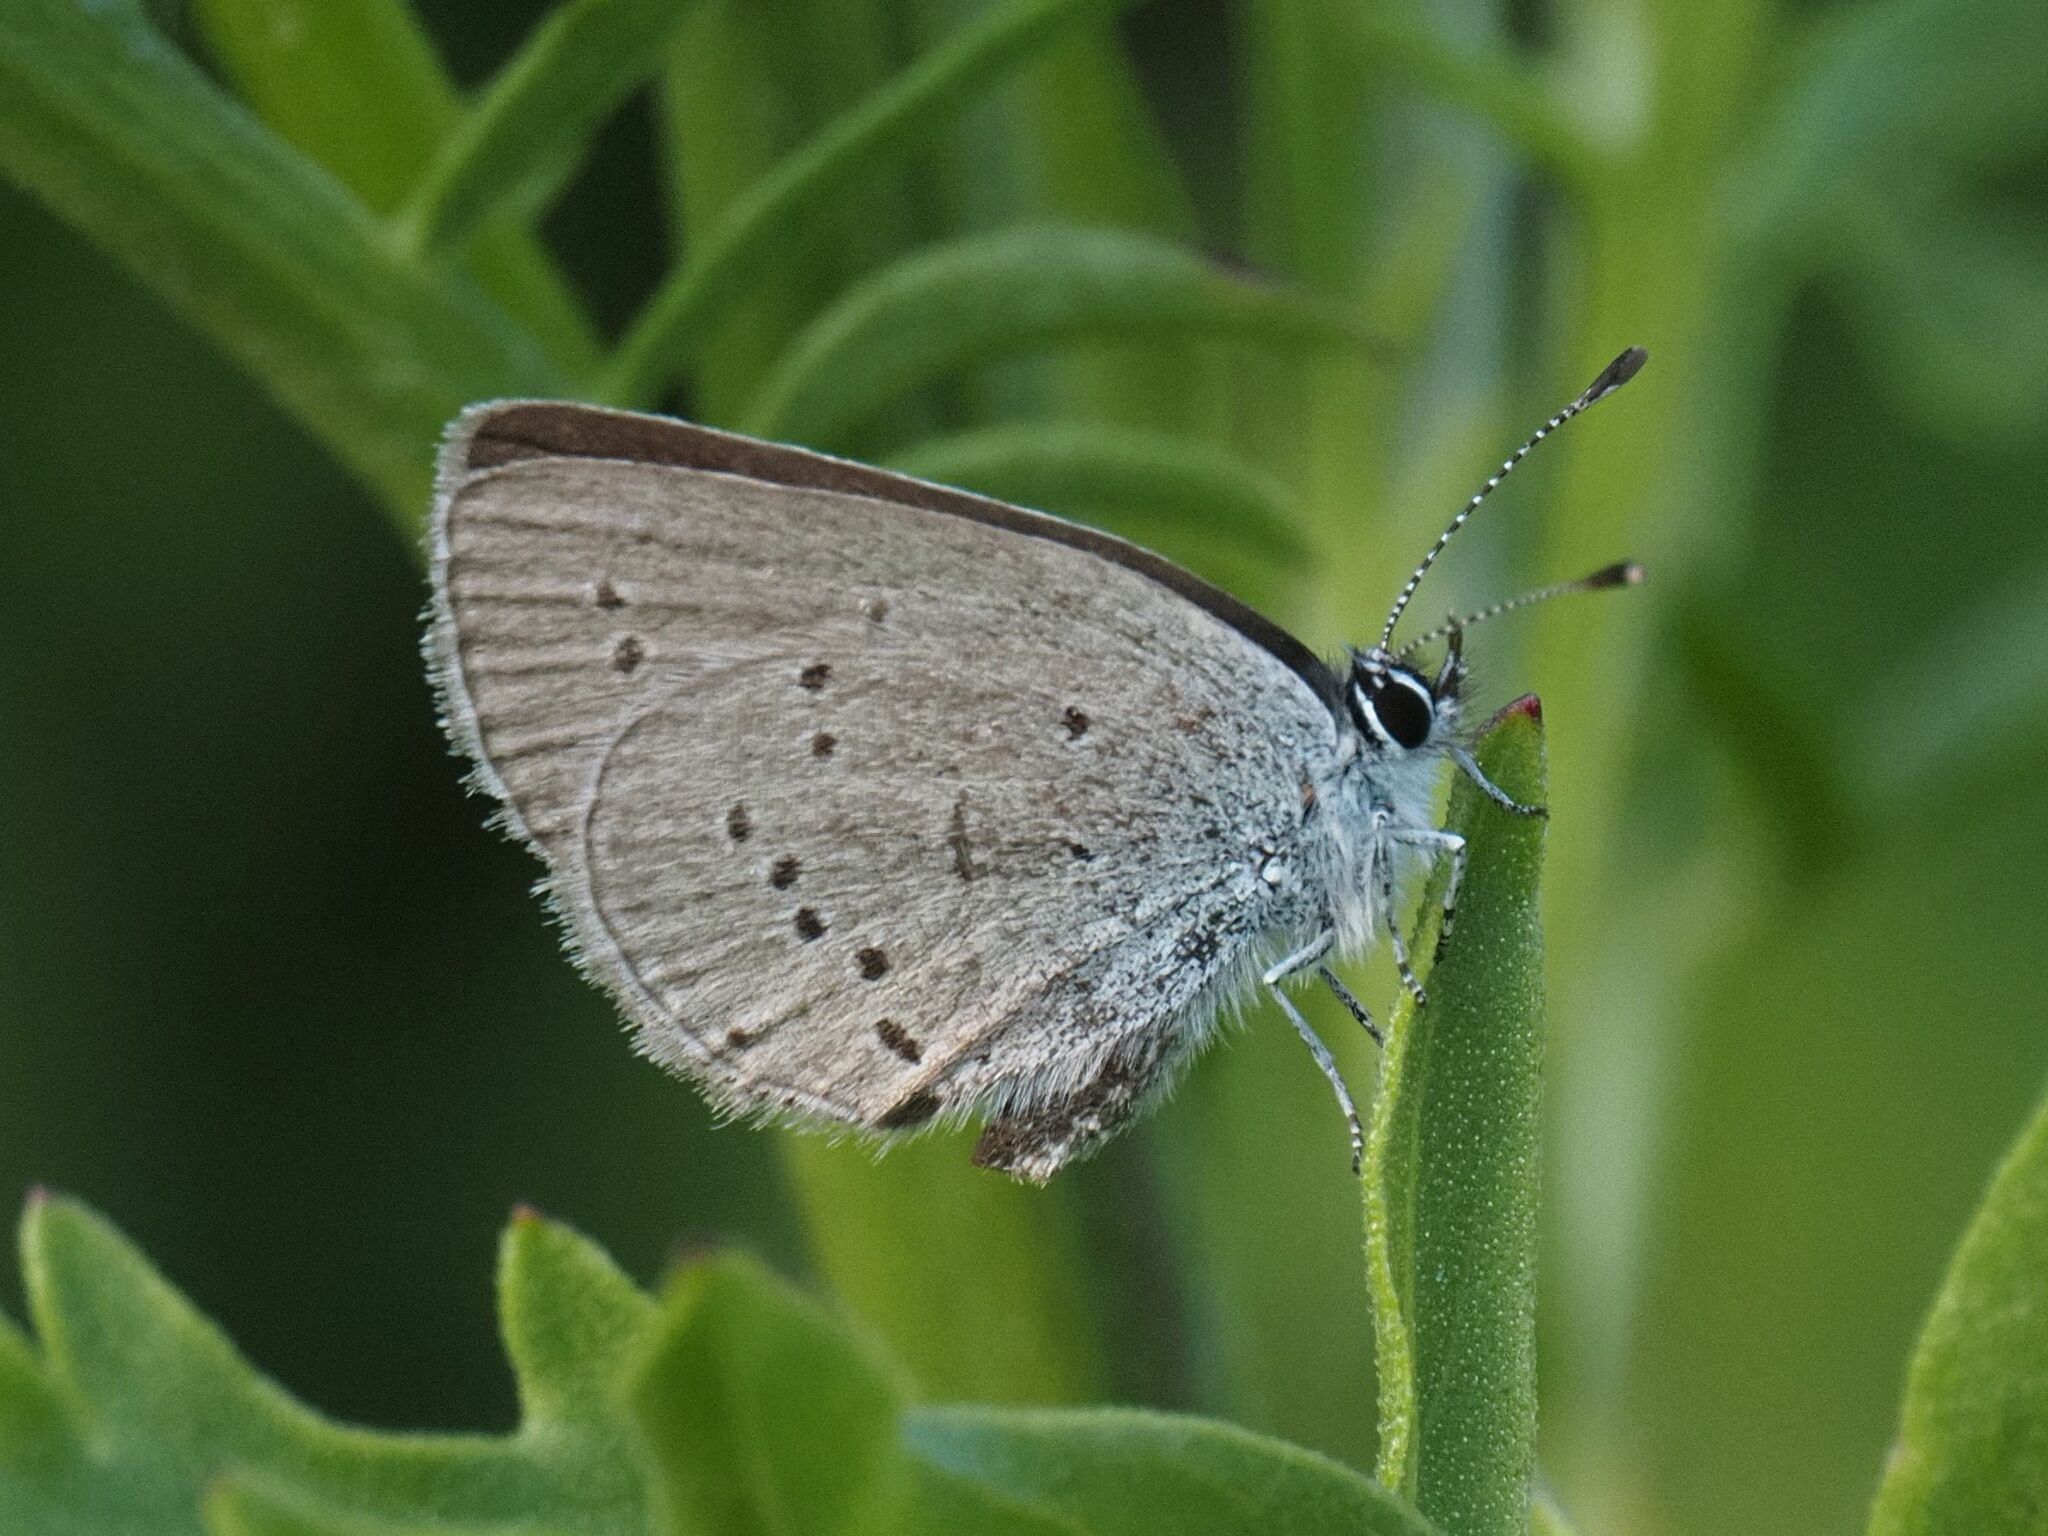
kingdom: Animalia
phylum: Arthropoda
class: Insecta
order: Lepidoptera
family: Lycaenidae
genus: Cupido
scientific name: Cupido minimus
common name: Small blue
